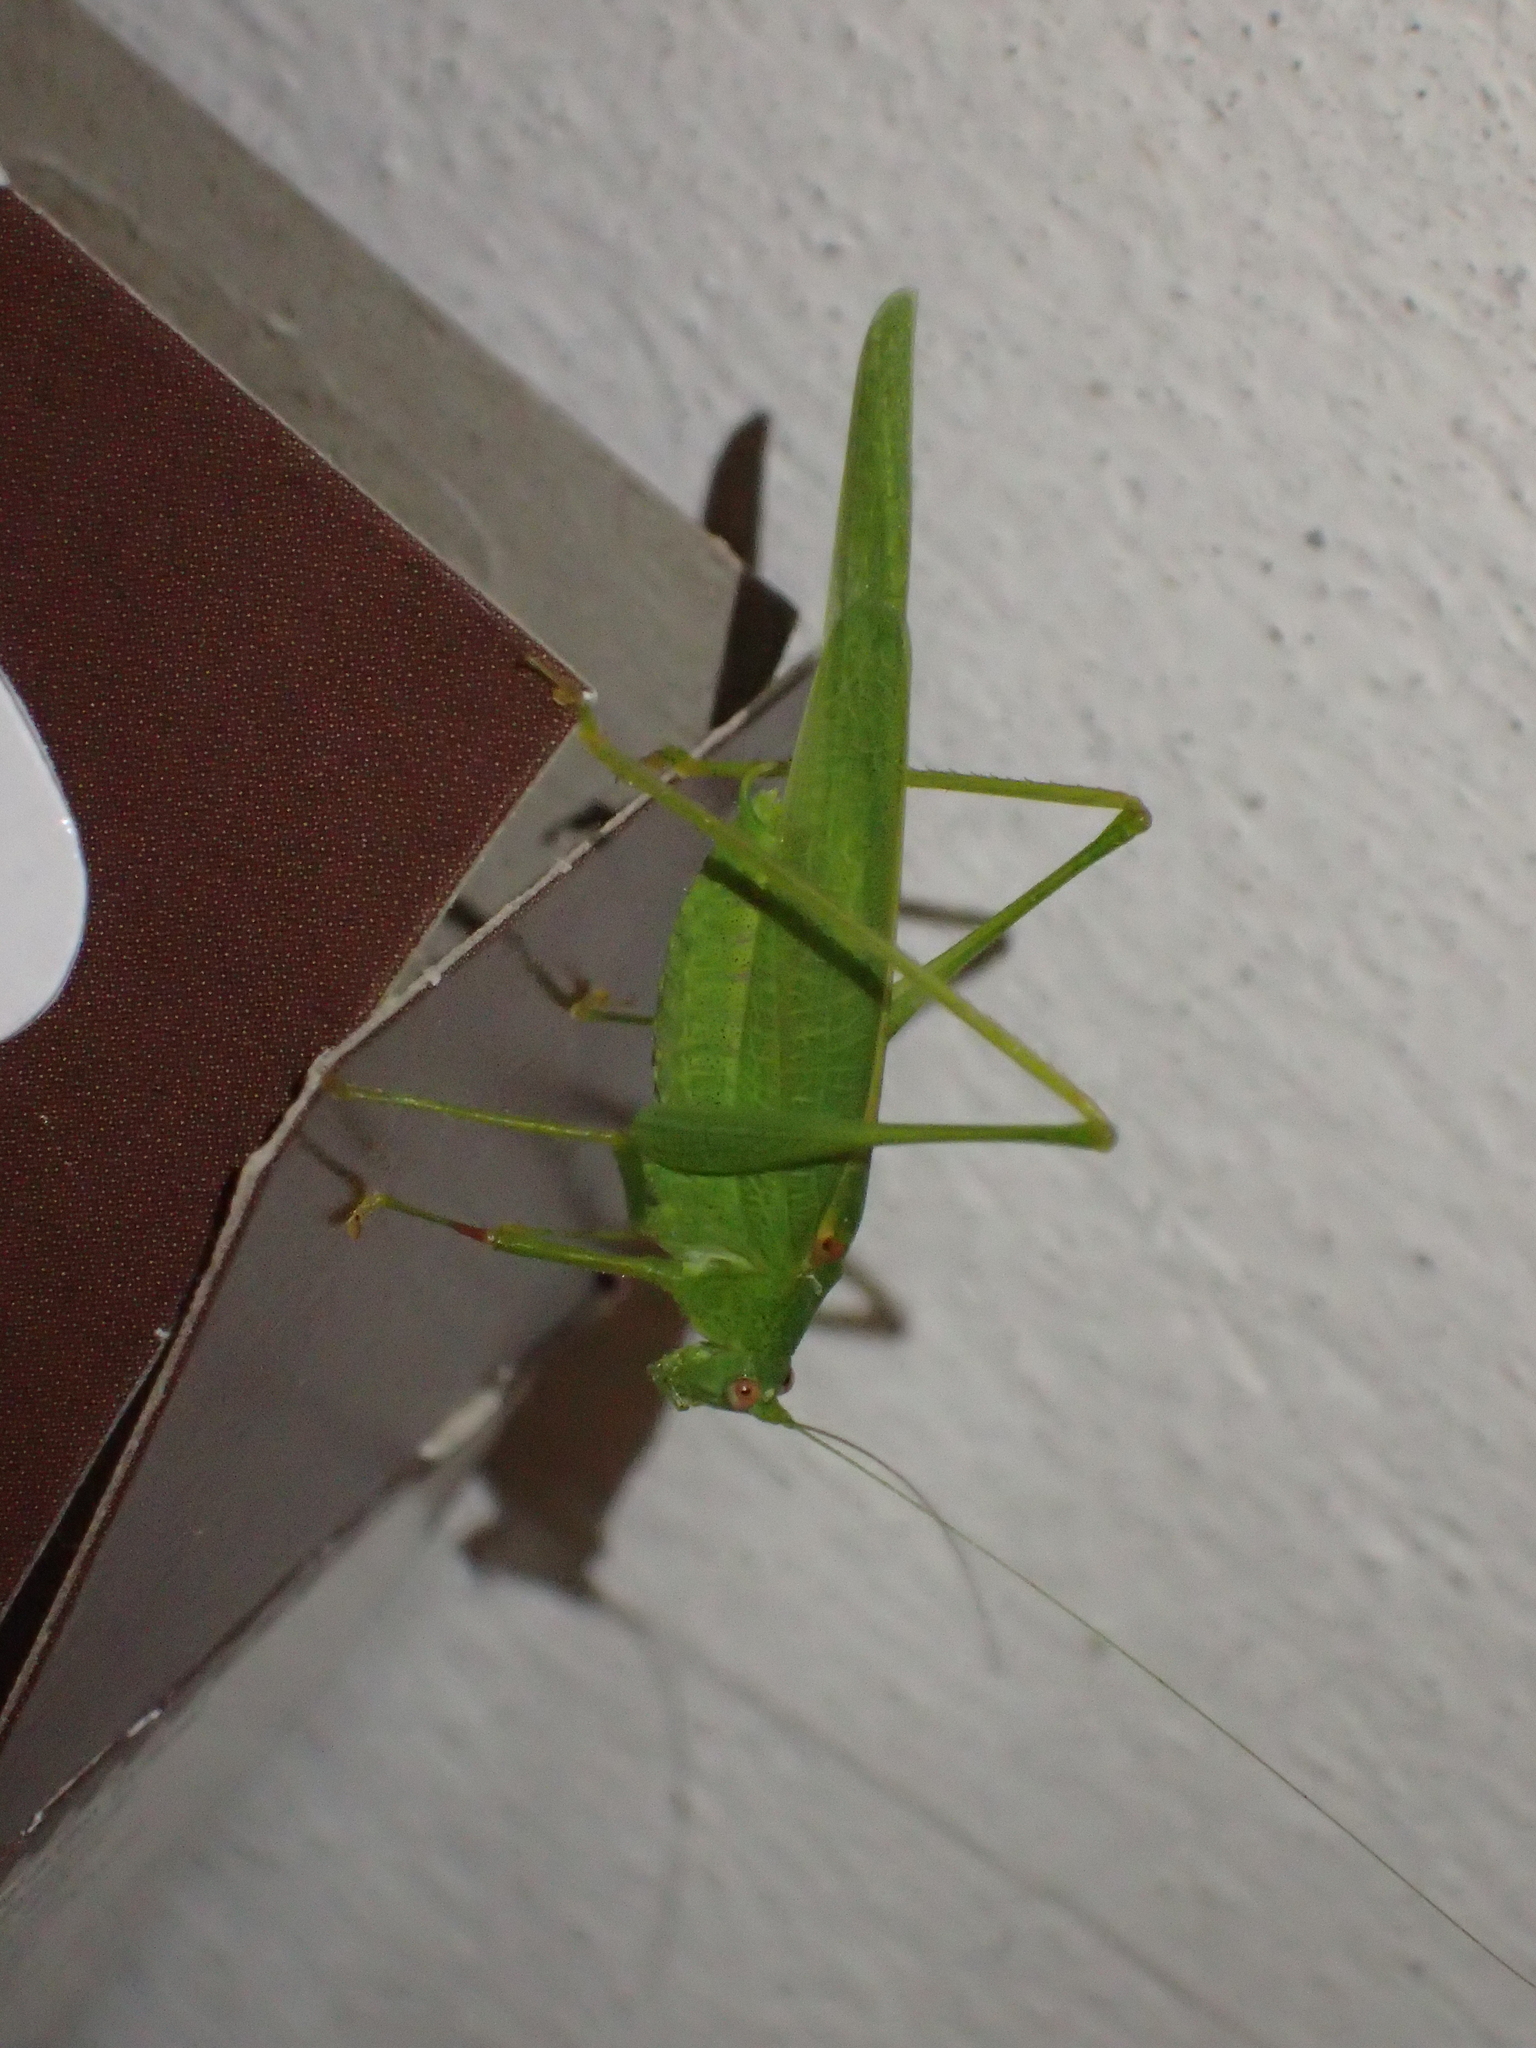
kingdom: Animalia
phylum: Arthropoda
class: Insecta
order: Orthoptera
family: Tettigoniidae
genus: Phaneroptera
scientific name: Phaneroptera nana
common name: Southern sickle bush-cricket
